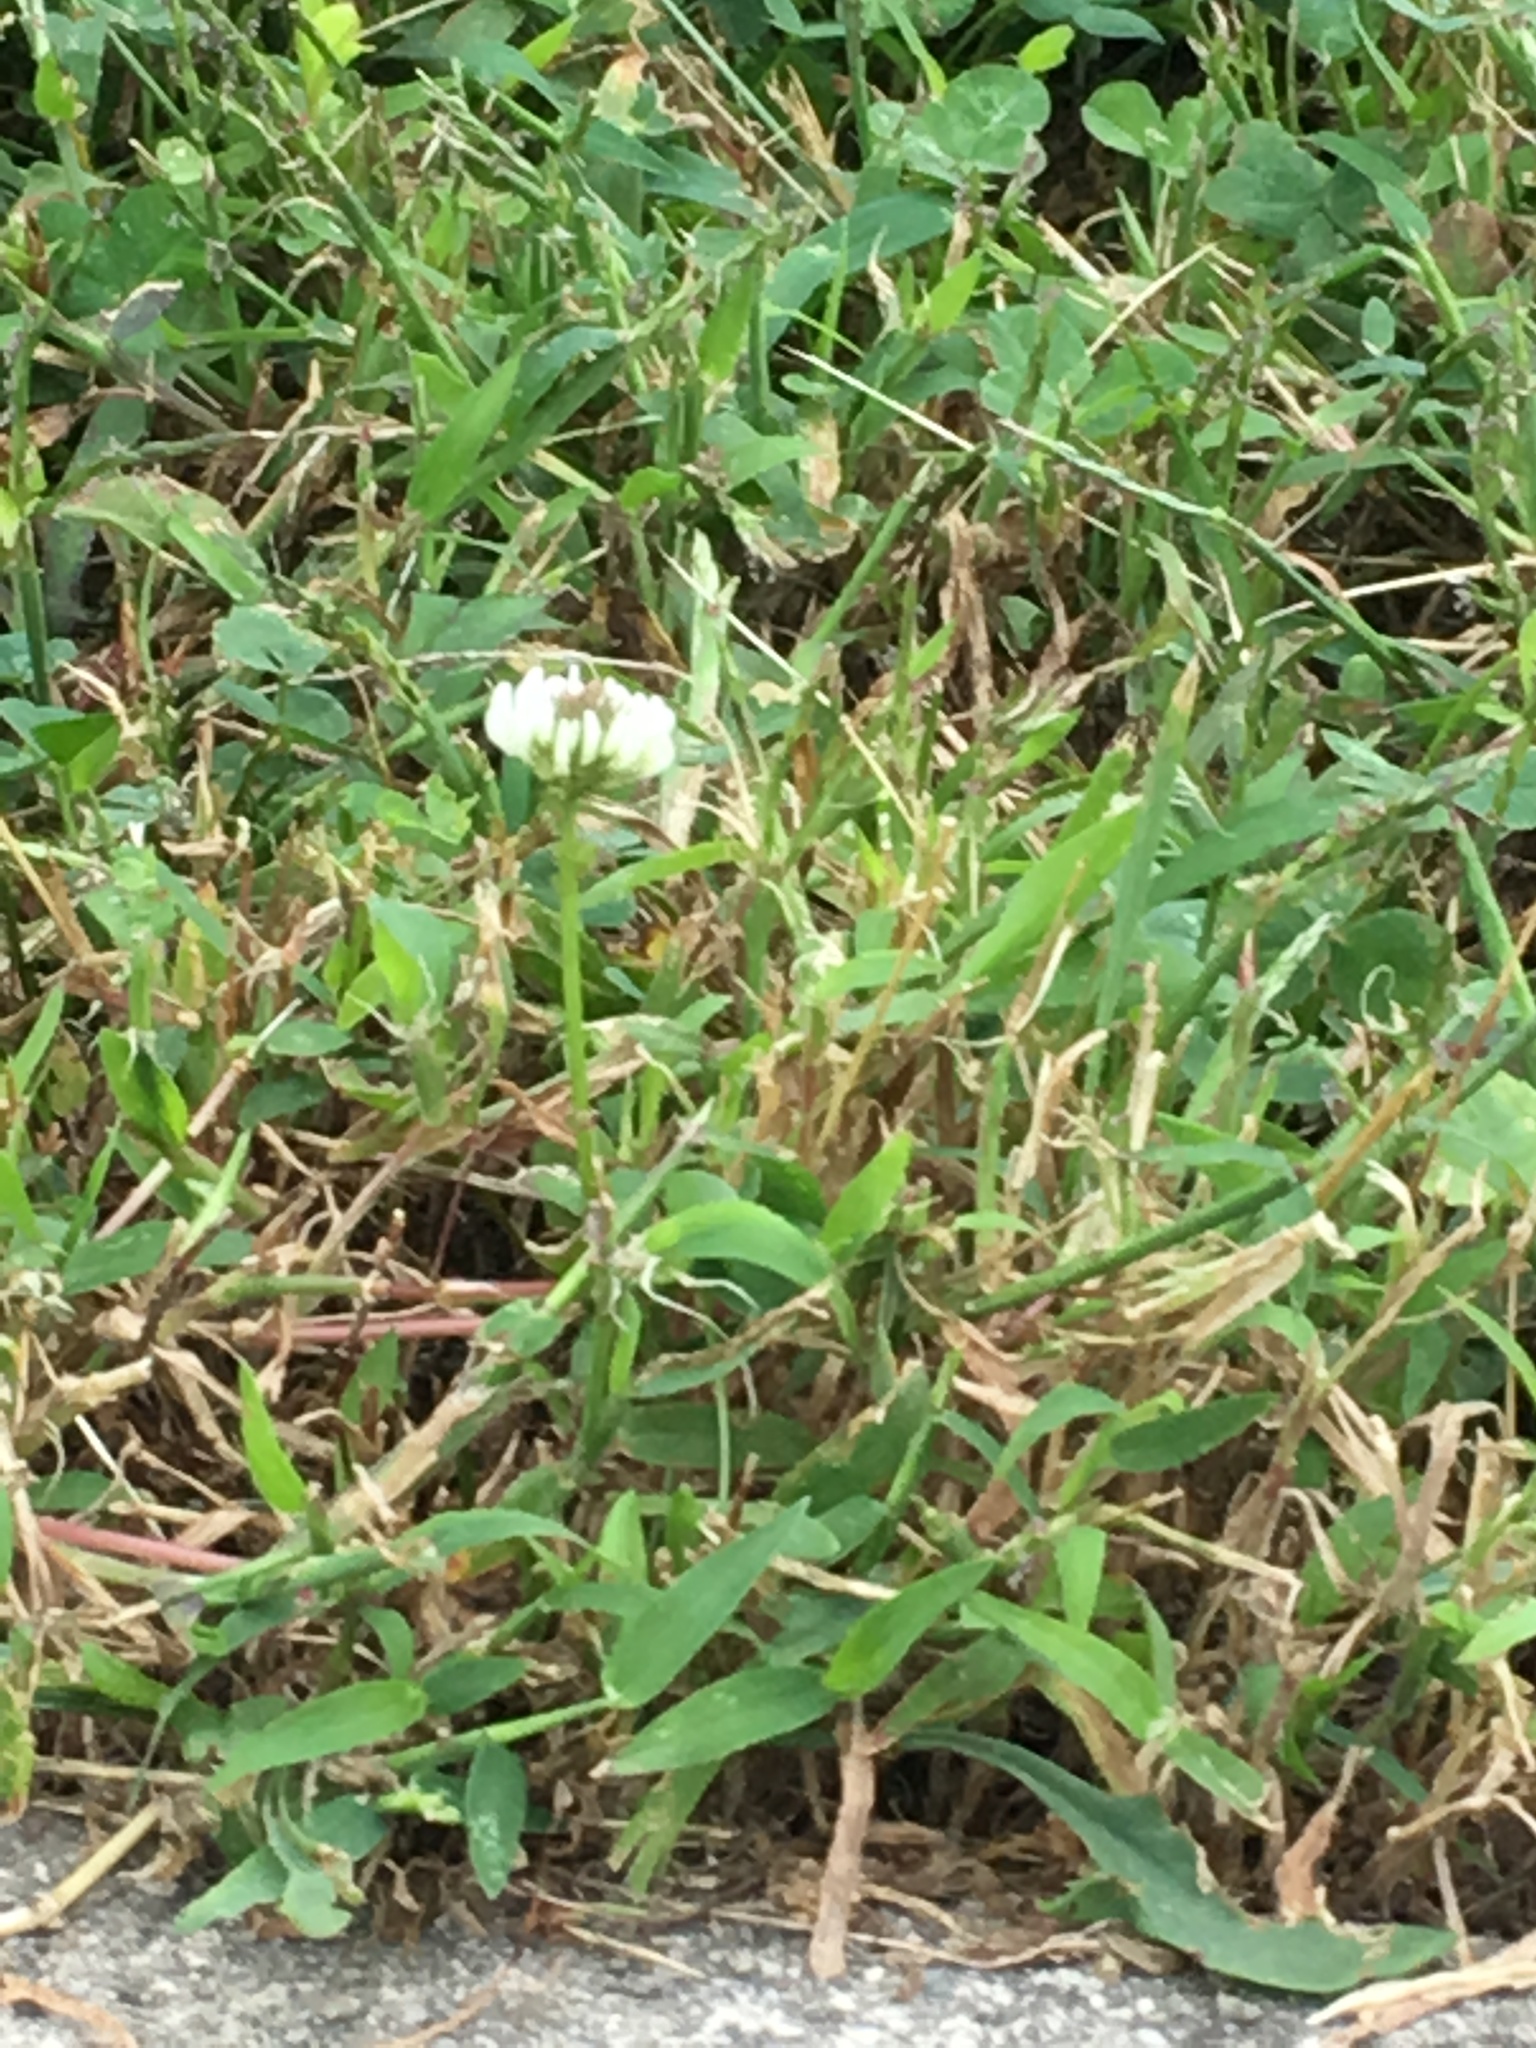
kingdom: Plantae
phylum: Tracheophyta
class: Magnoliopsida
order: Fabales
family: Fabaceae
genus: Trifolium
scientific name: Trifolium repens
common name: White clover
